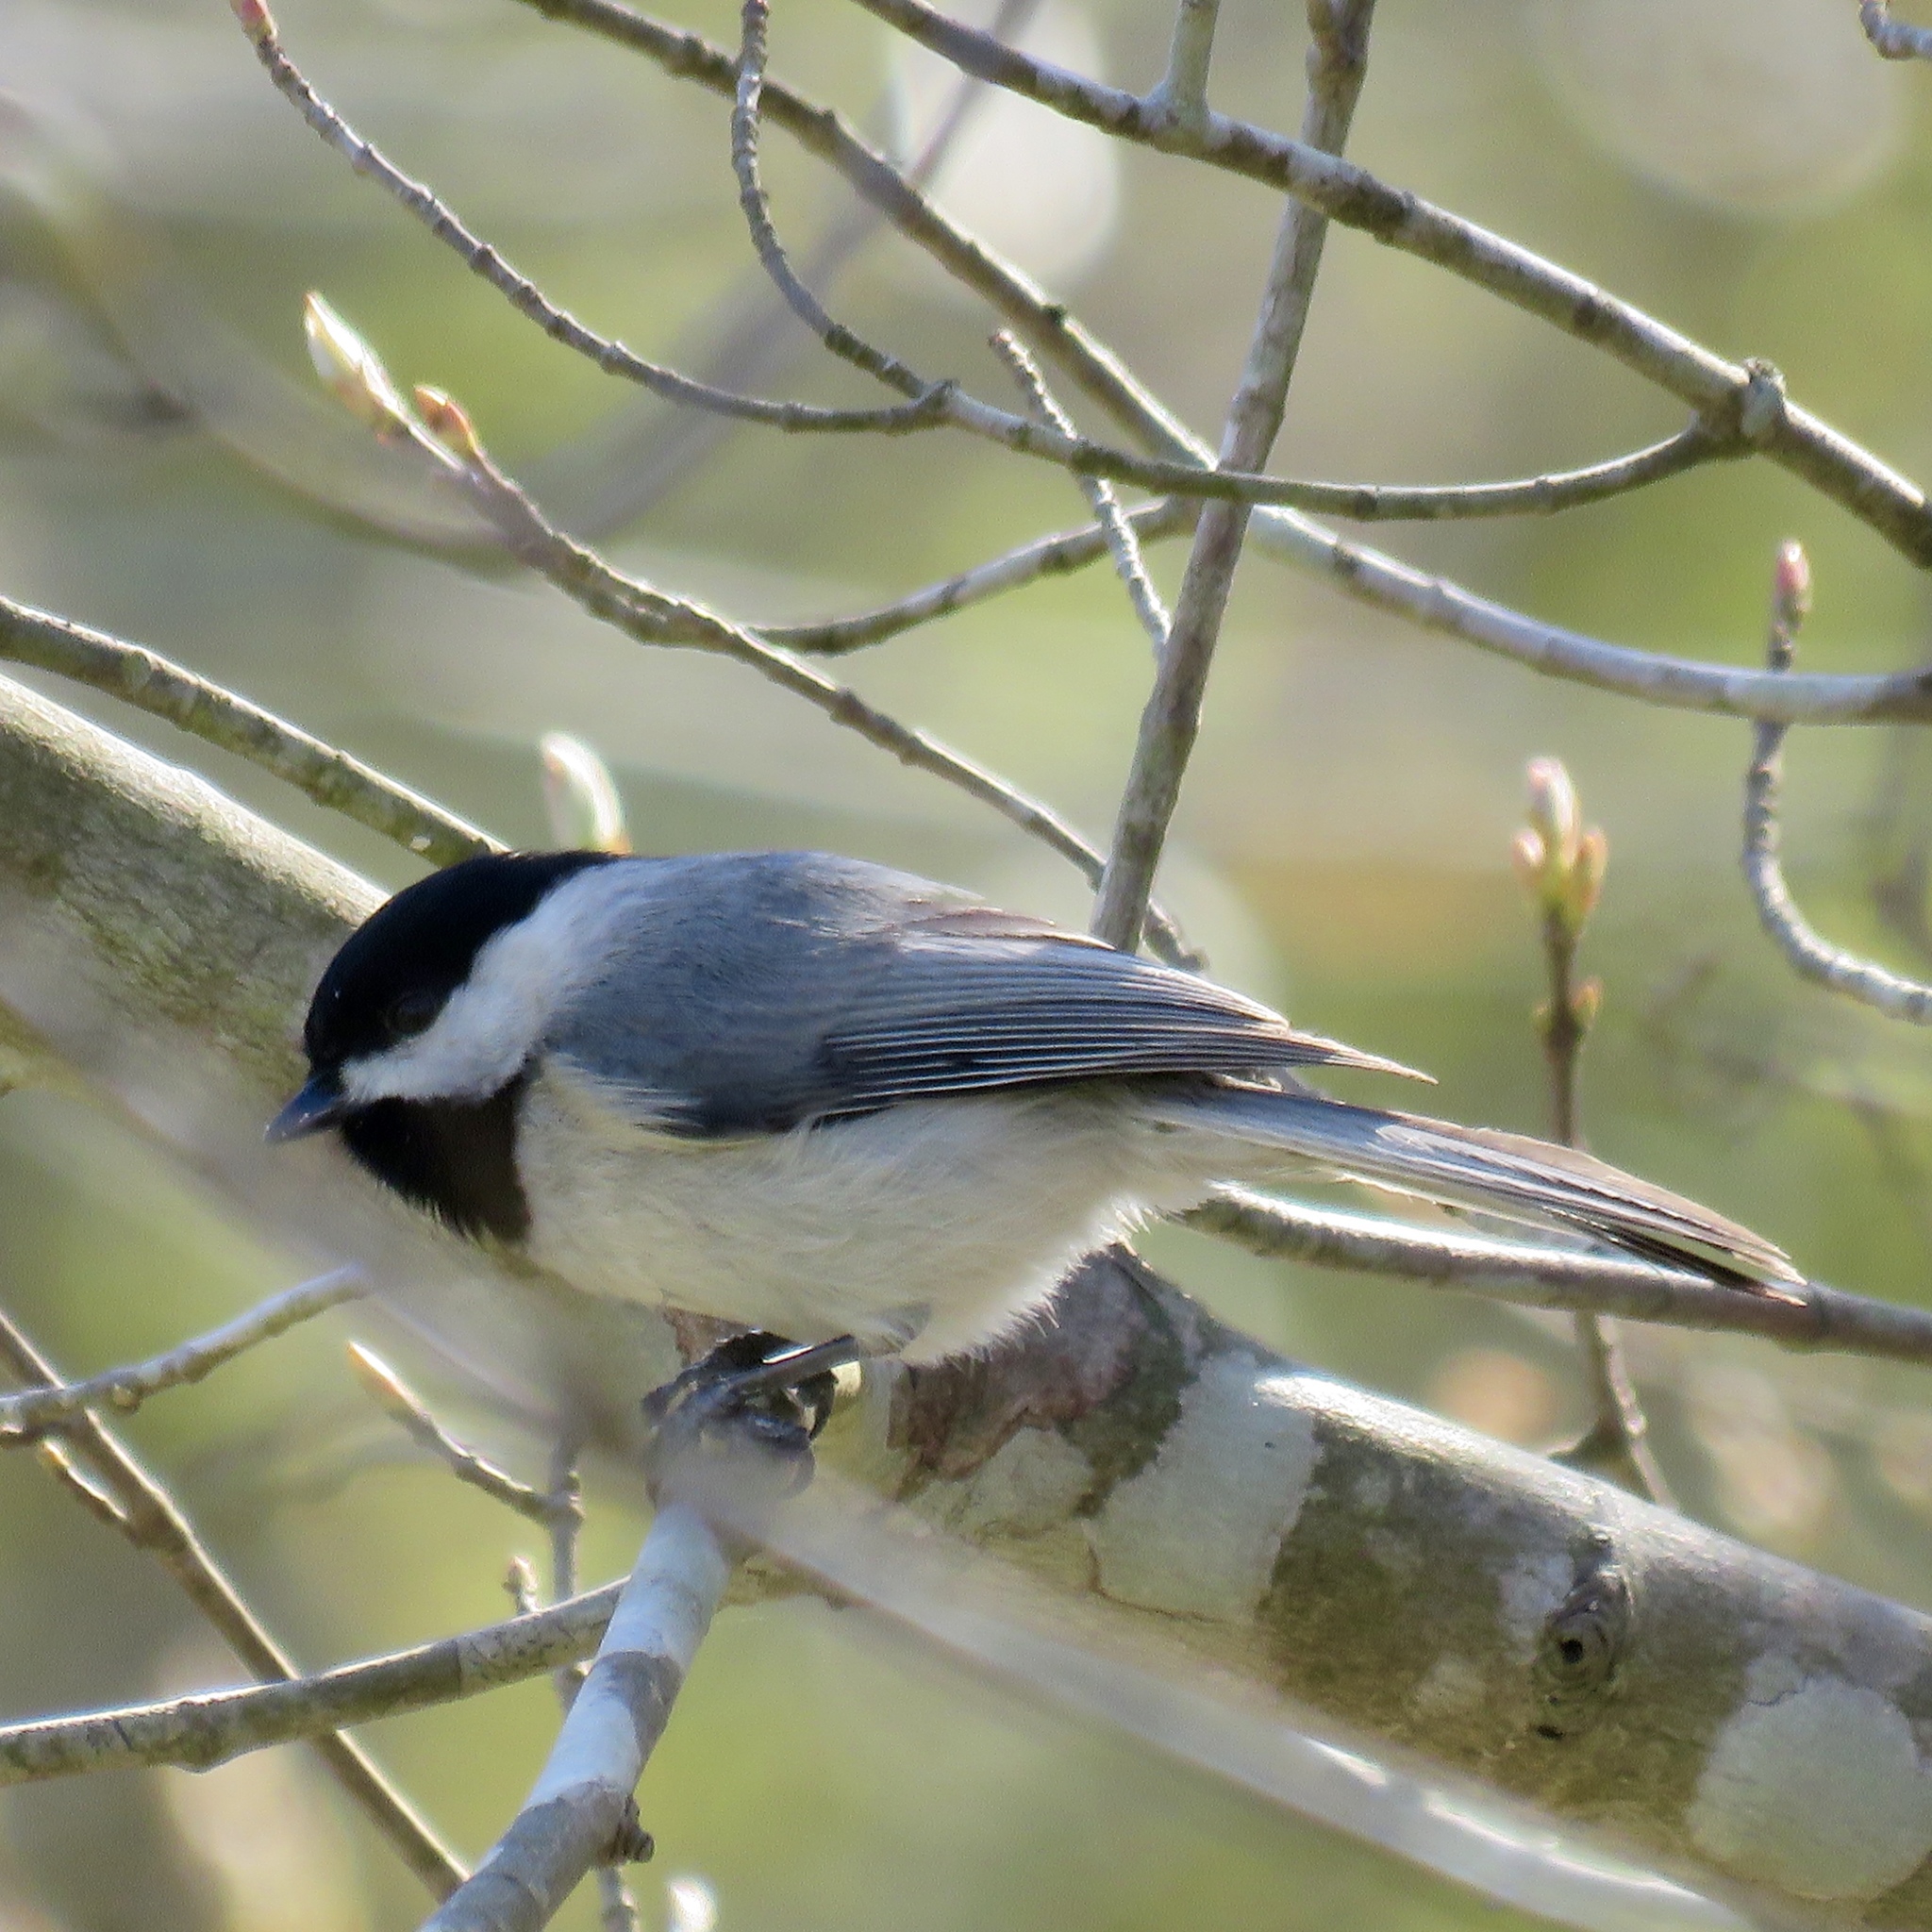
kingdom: Animalia
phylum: Chordata
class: Aves
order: Passeriformes
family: Paridae
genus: Poecile
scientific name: Poecile carolinensis
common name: Carolina chickadee
